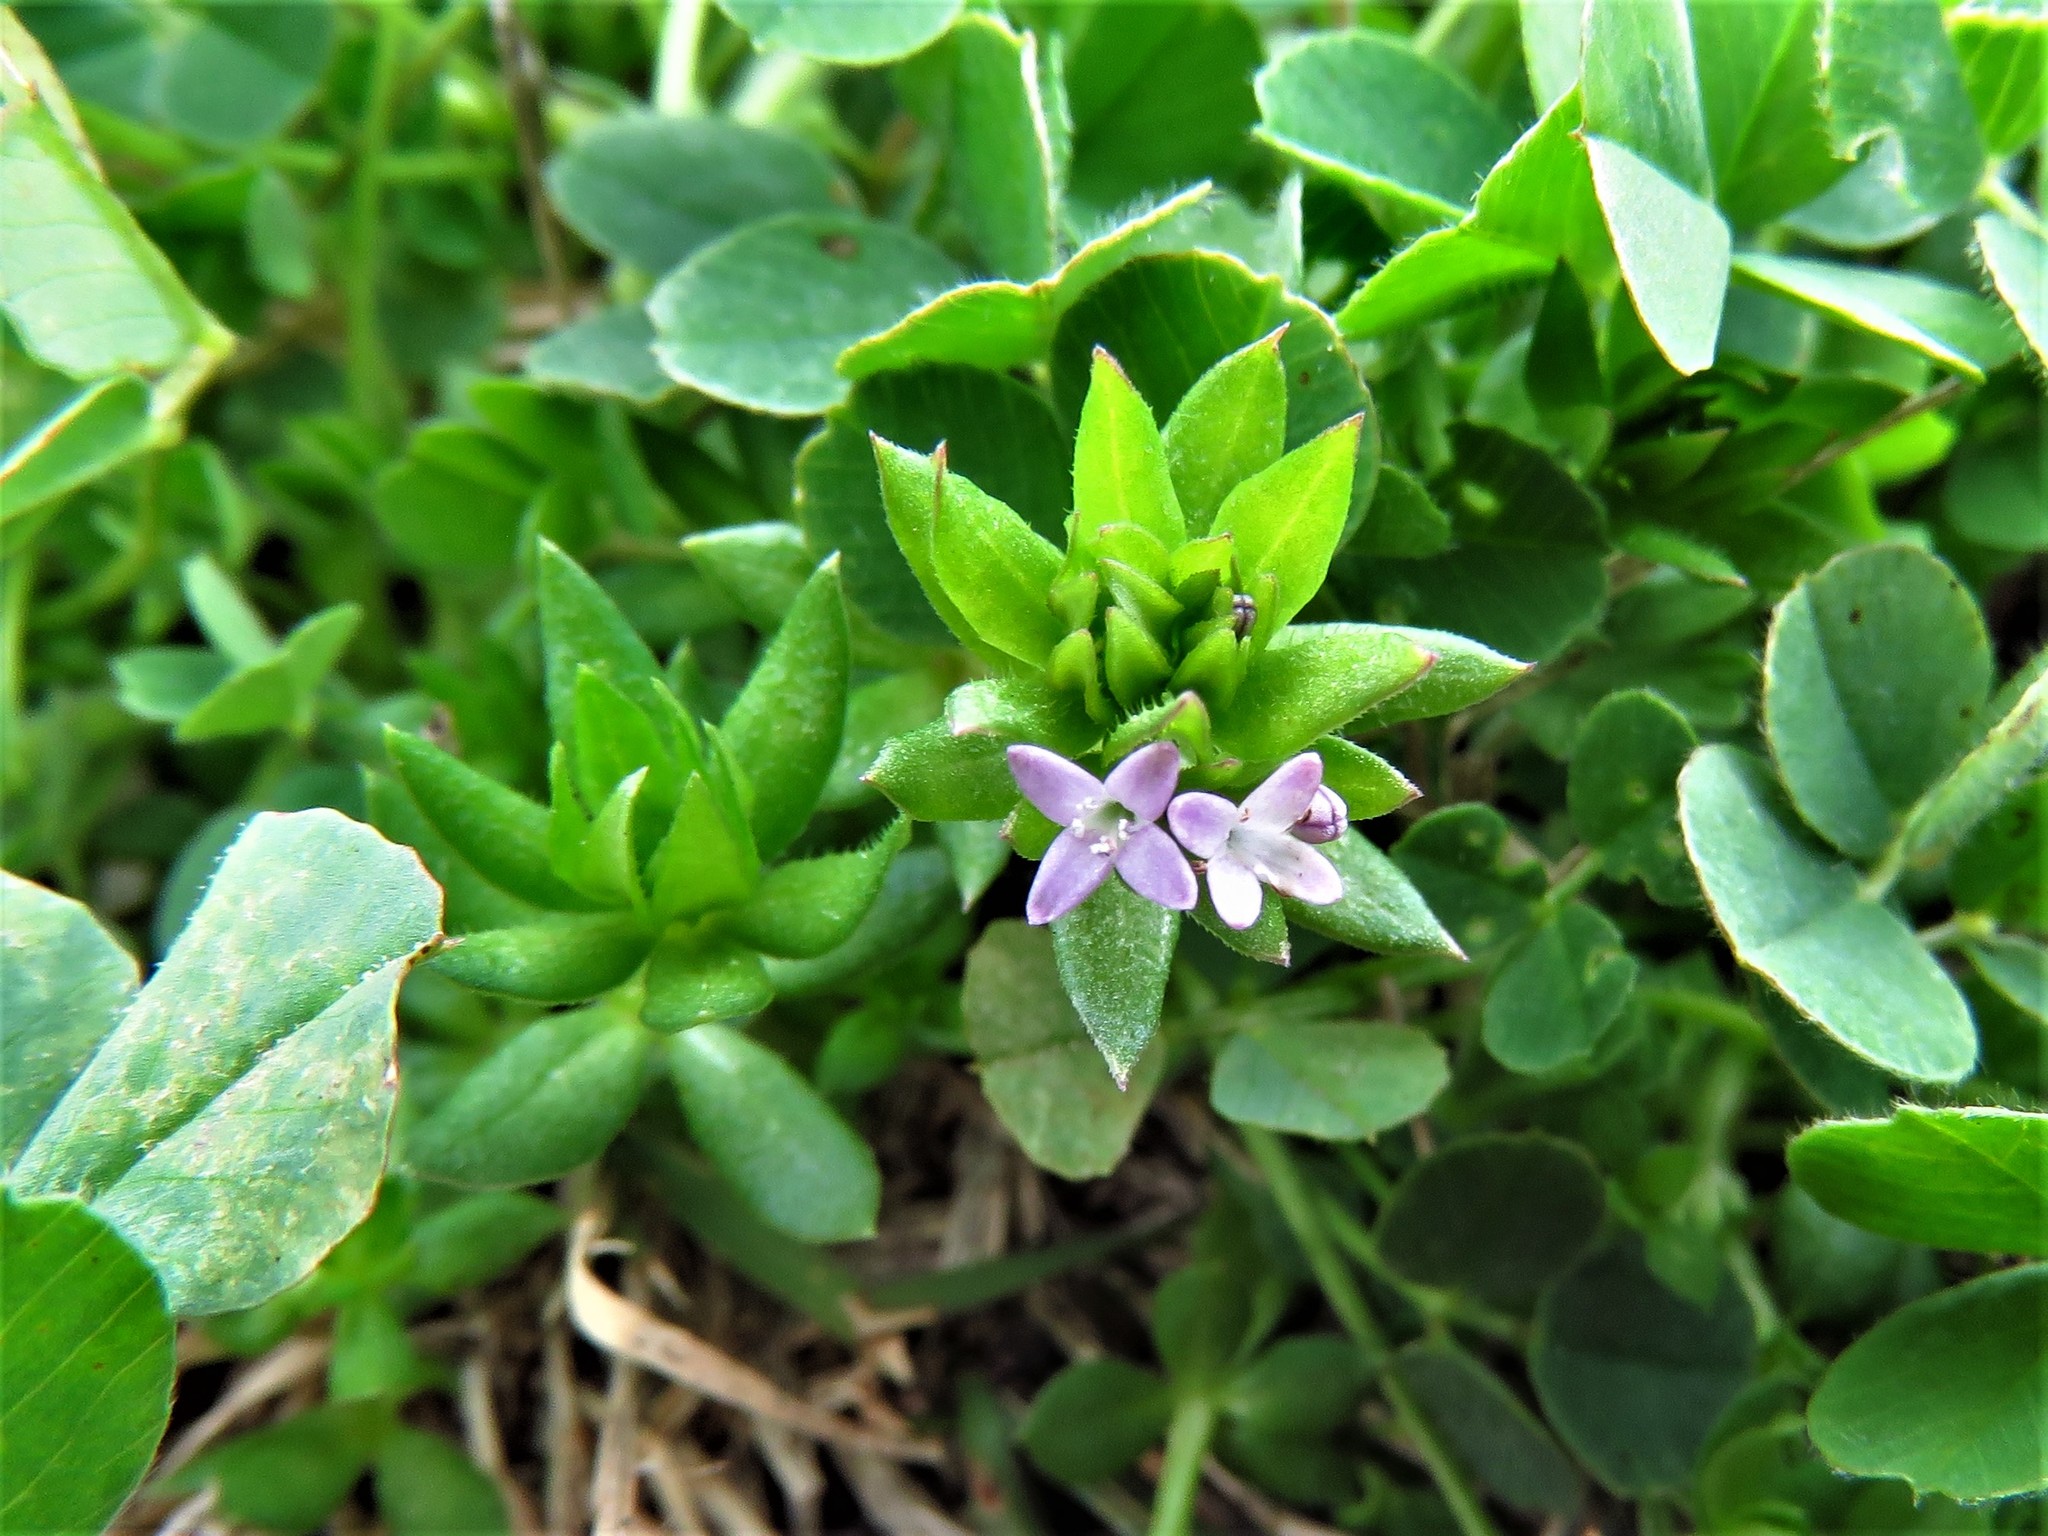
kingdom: Plantae
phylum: Tracheophyta
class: Magnoliopsida
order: Gentianales
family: Rubiaceae
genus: Sherardia
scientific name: Sherardia arvensis
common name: Field madder
